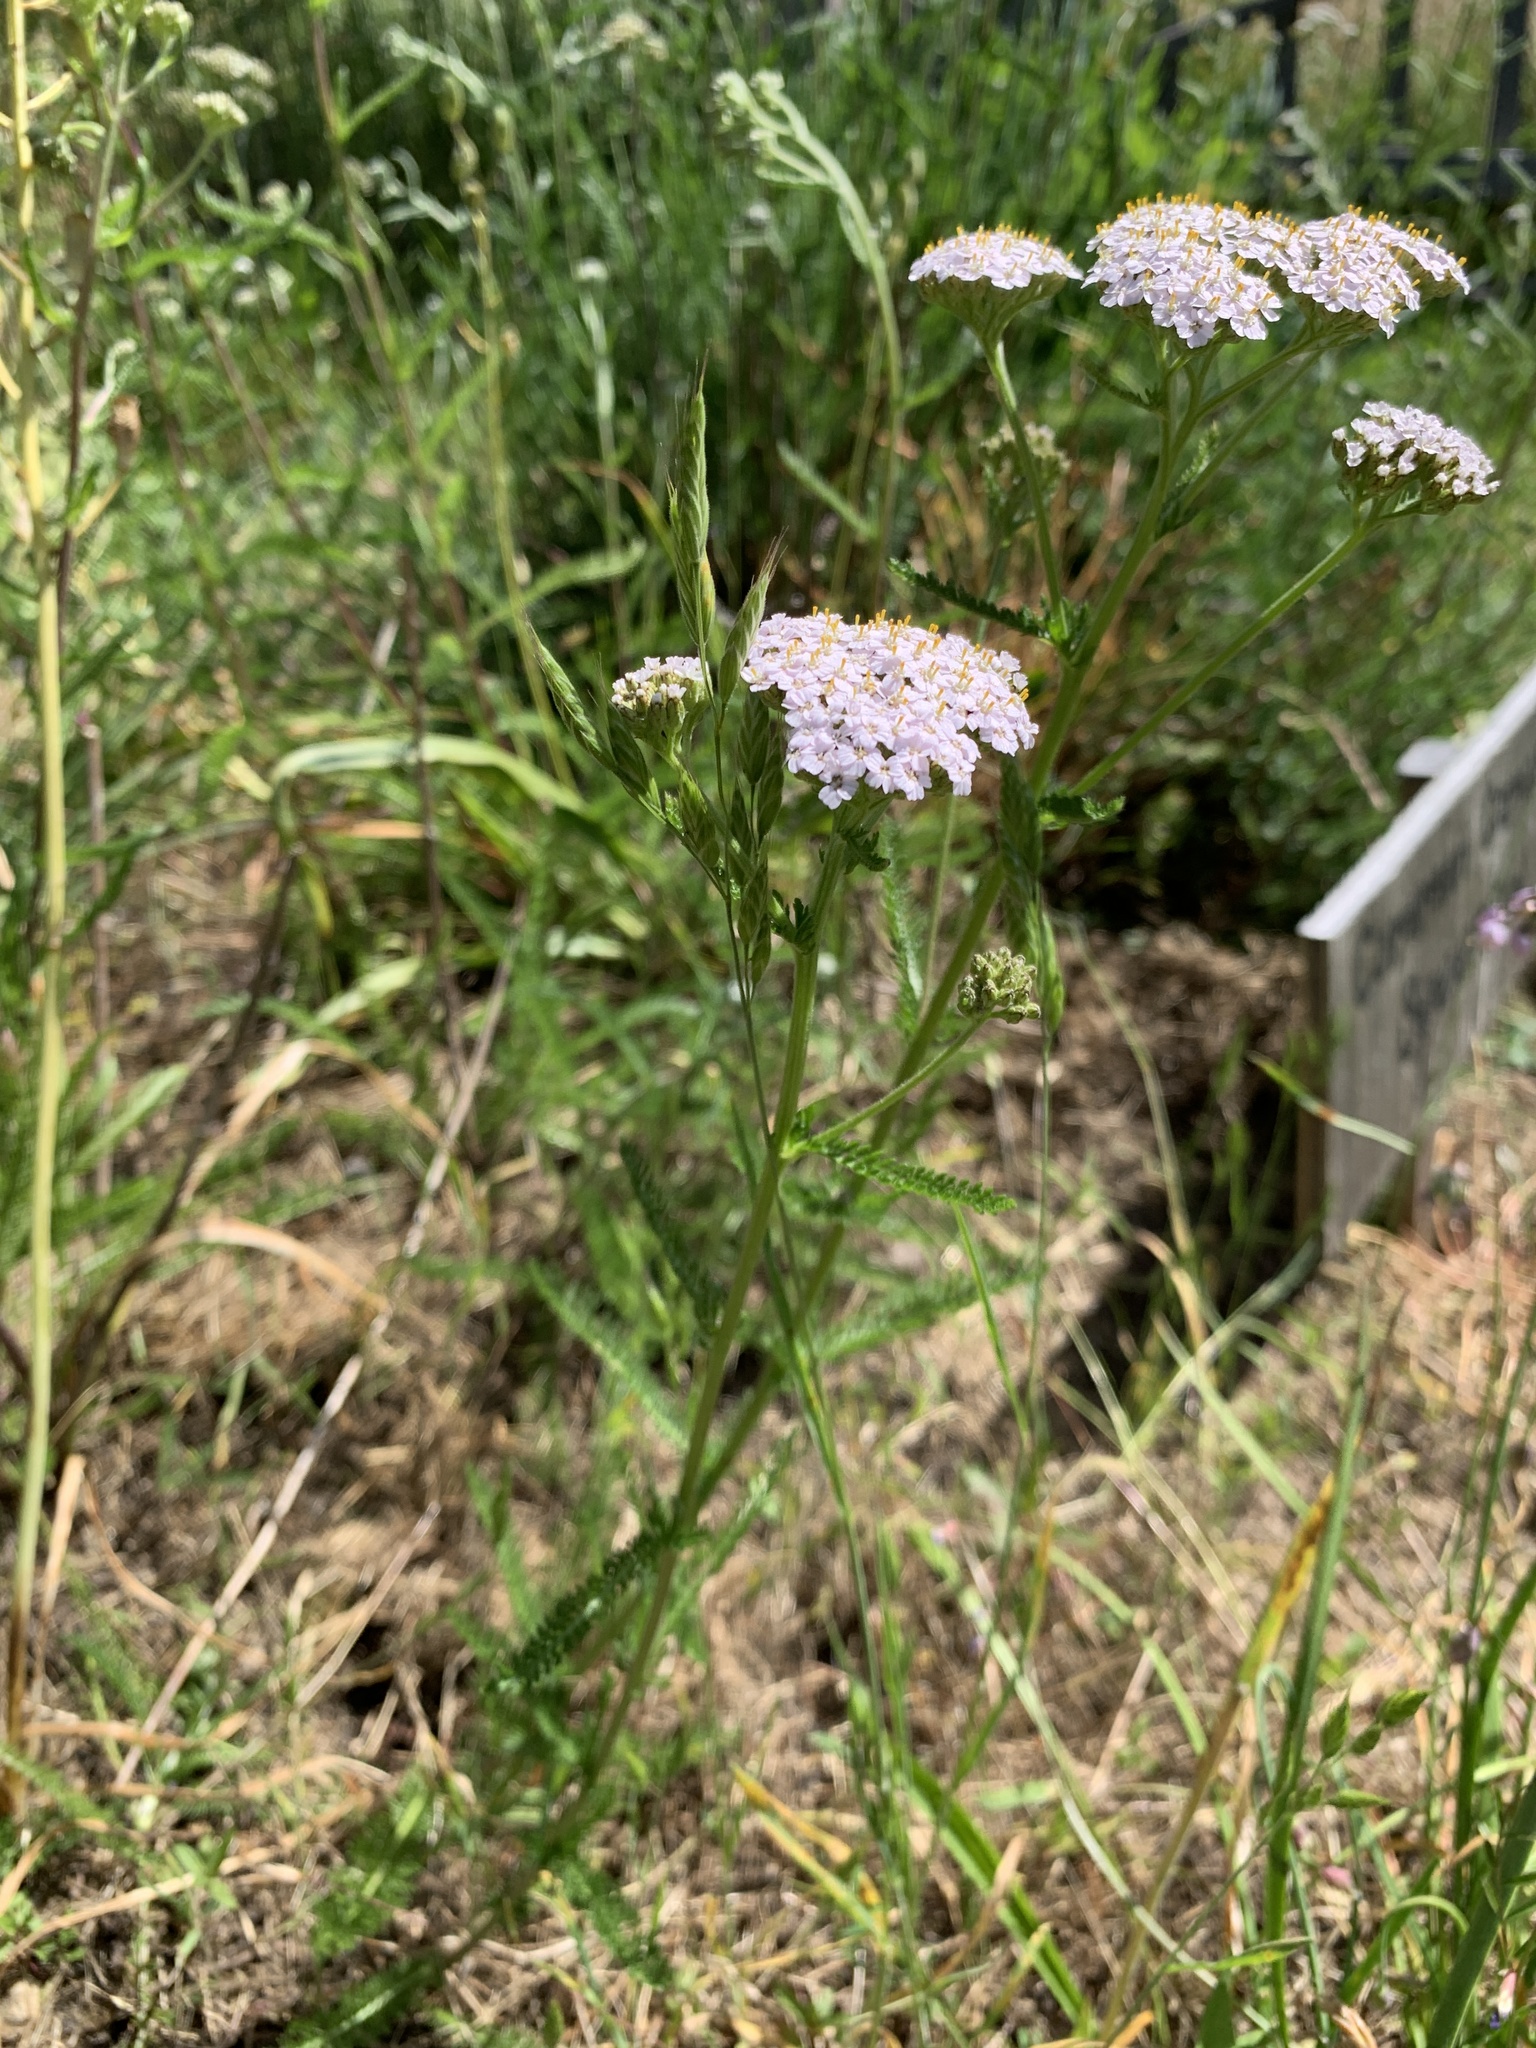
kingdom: Plantae
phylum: Tracheophyta
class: Magnoliopsida
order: Asterales
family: Asteraceae
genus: Achillea
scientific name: Achillea millefolium
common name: Yarrow
